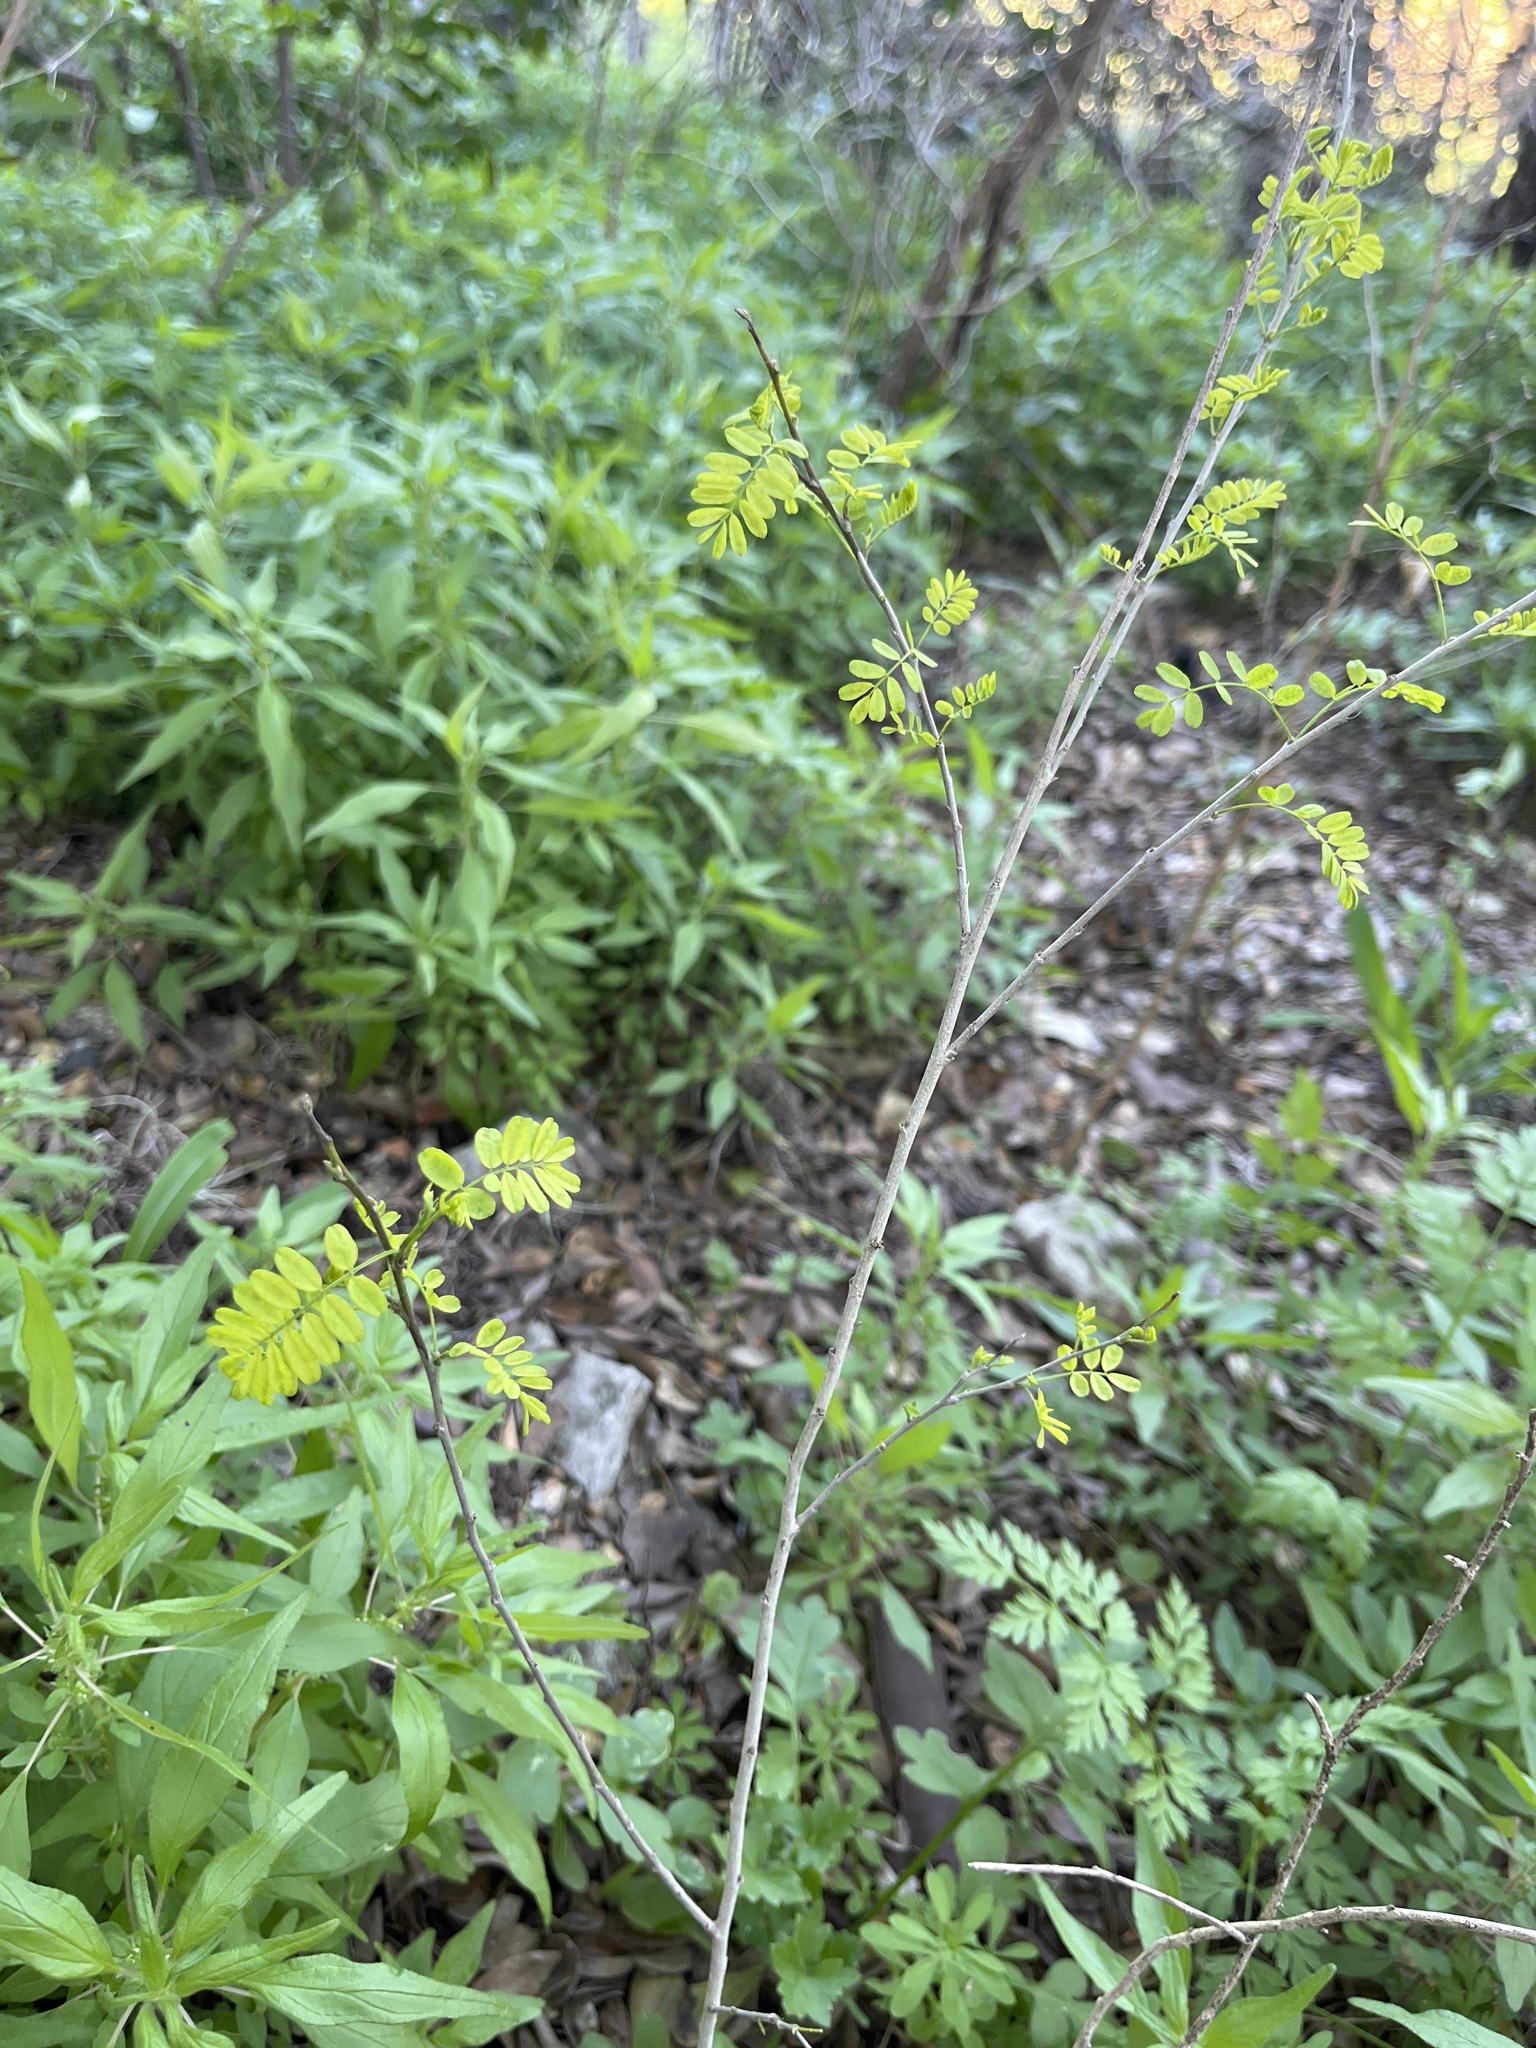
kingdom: Plantae
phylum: Tracheophyta
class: Magnoliopsida
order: Fabales
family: Fabaceae
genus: Eysenhardtia
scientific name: Eysenhardtia texana
